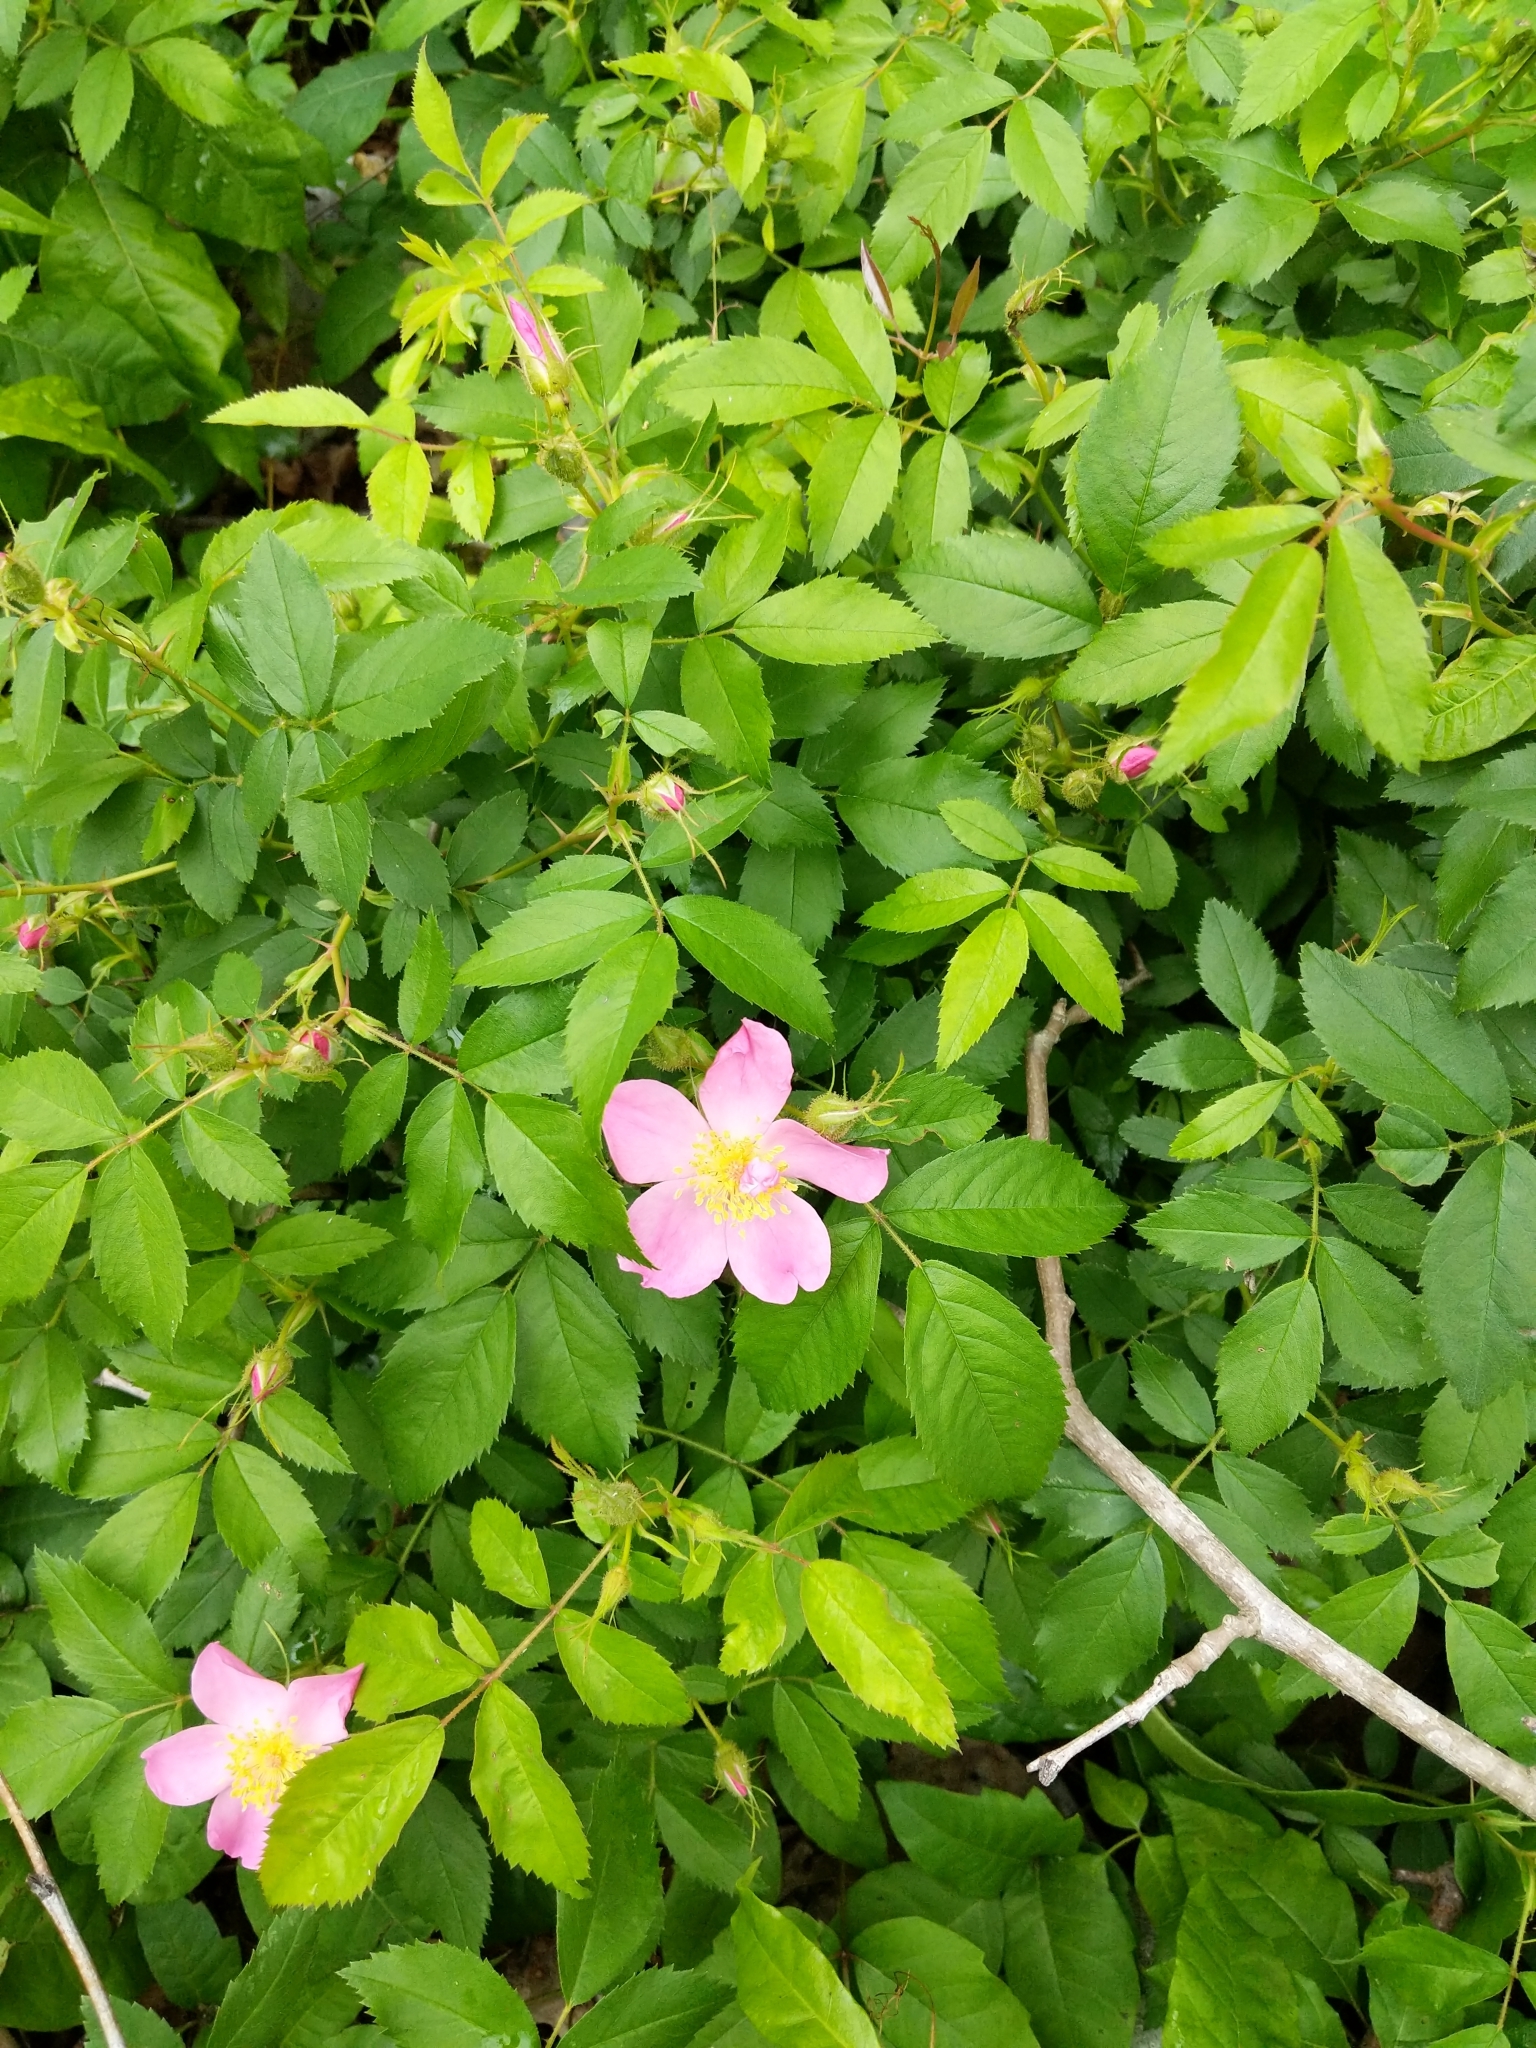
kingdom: Plantae
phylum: Tracheophyta
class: Magnoliopsida
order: Rosales
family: Rosaceae
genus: Rosa
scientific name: Rosa carolina
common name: Pasture rose
